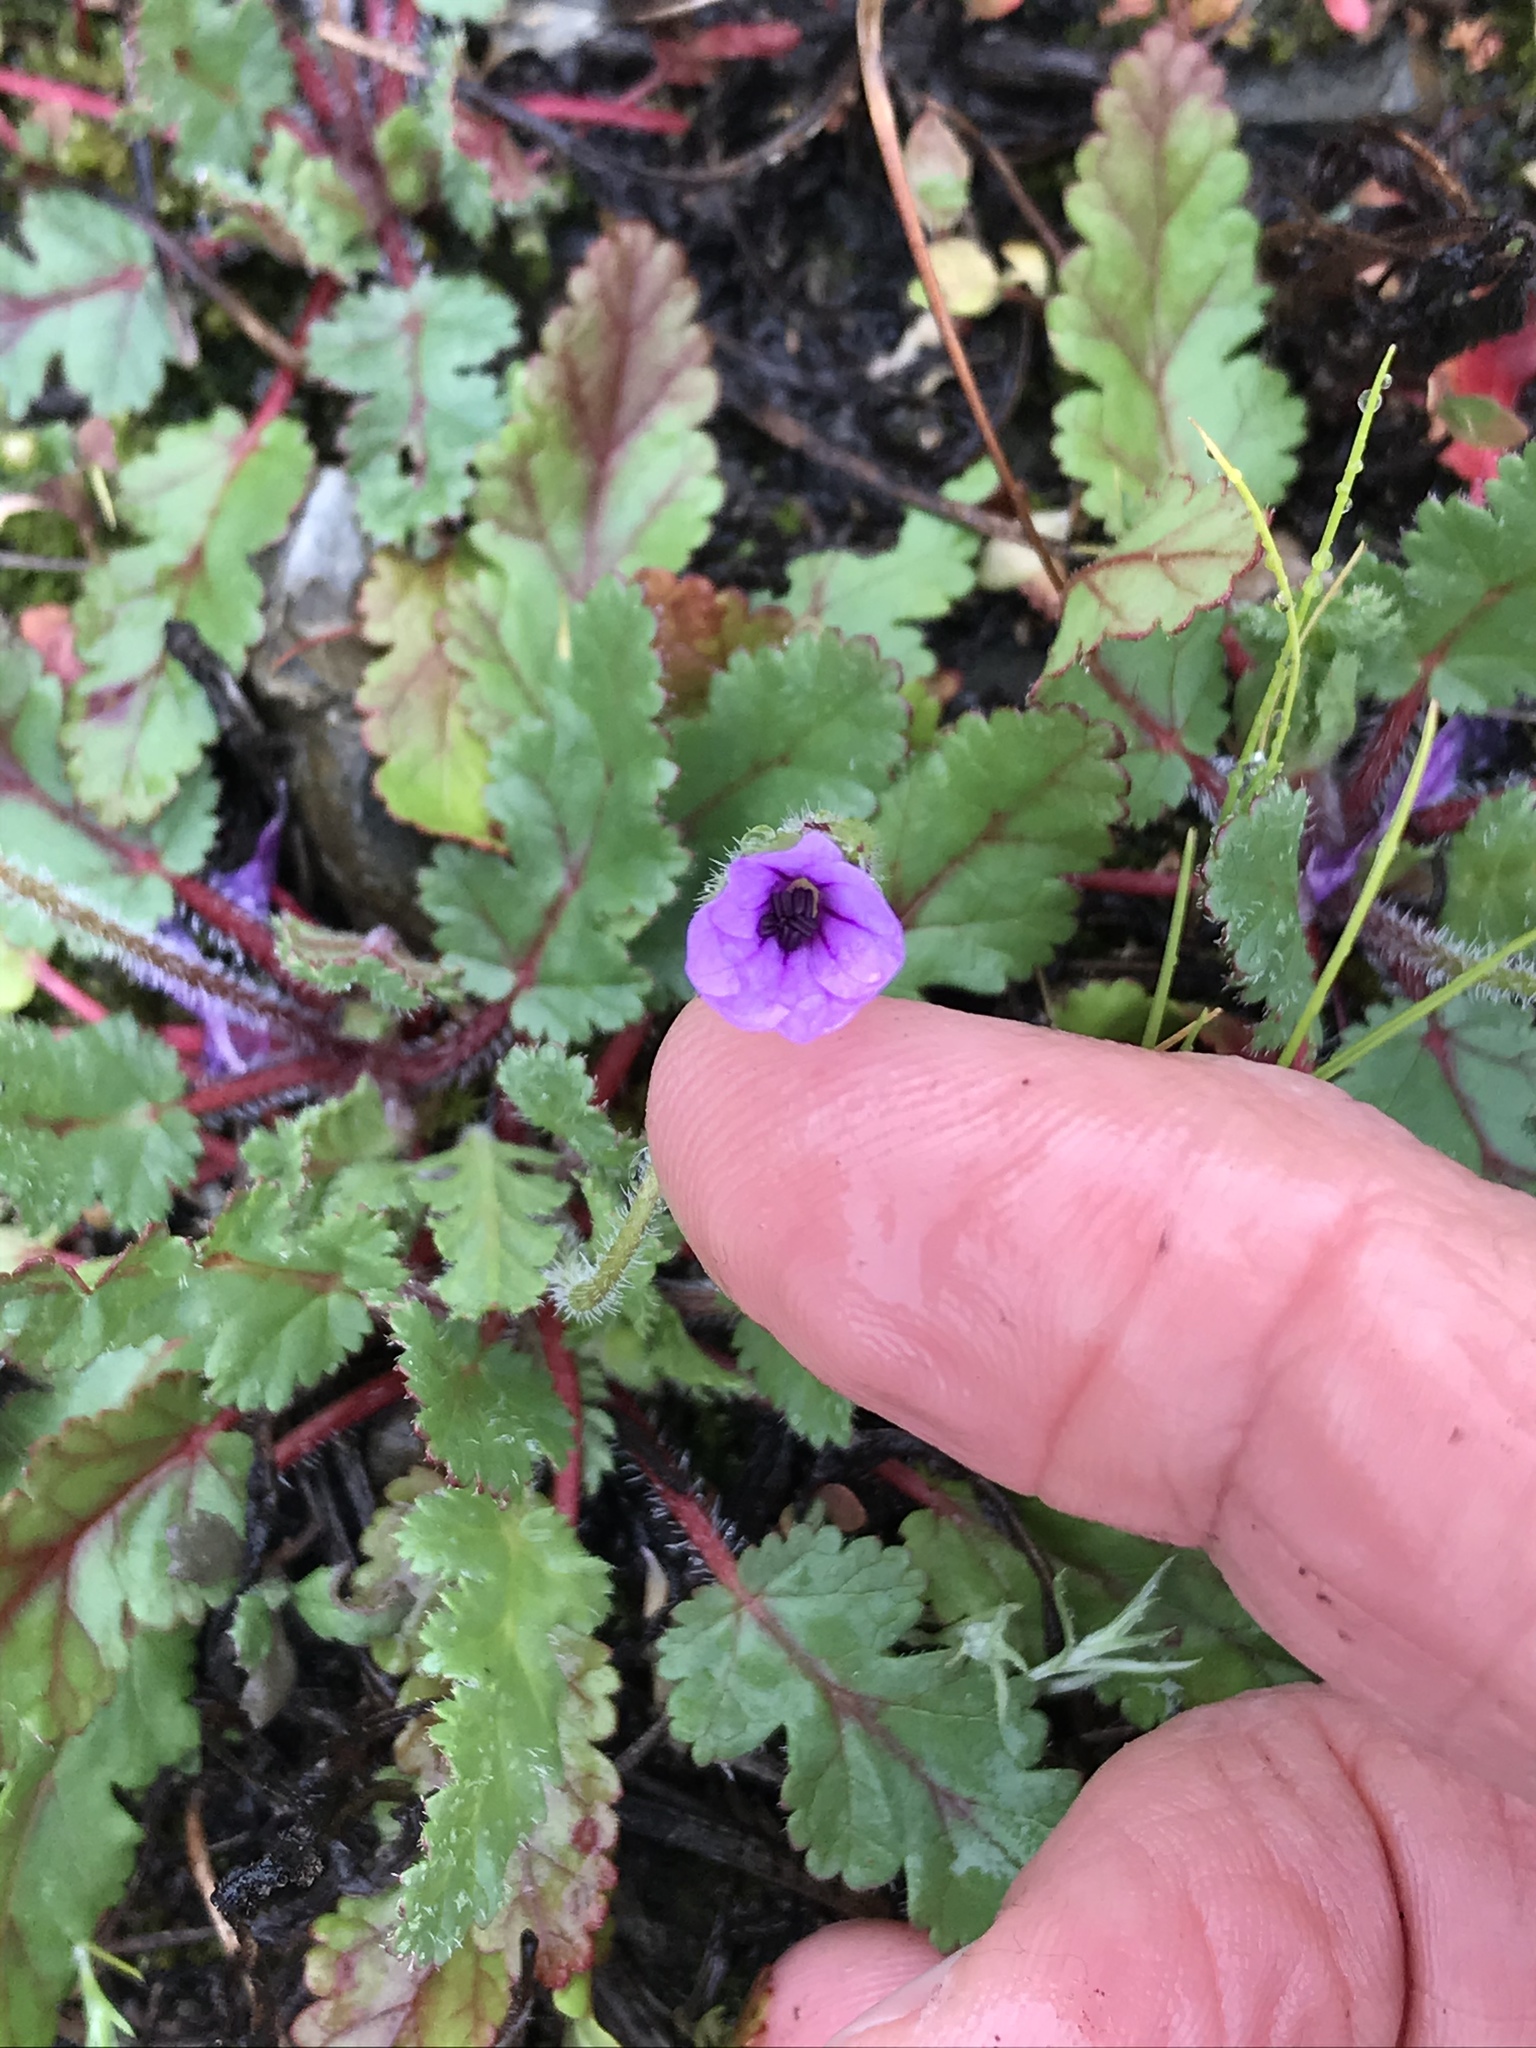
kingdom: Plantae
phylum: Tracheophyta
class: Magnoliopsida
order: Geraniales
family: Geraniaceae
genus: Erodium
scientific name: Erodium botrys
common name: Mediterranean stork's-bill
